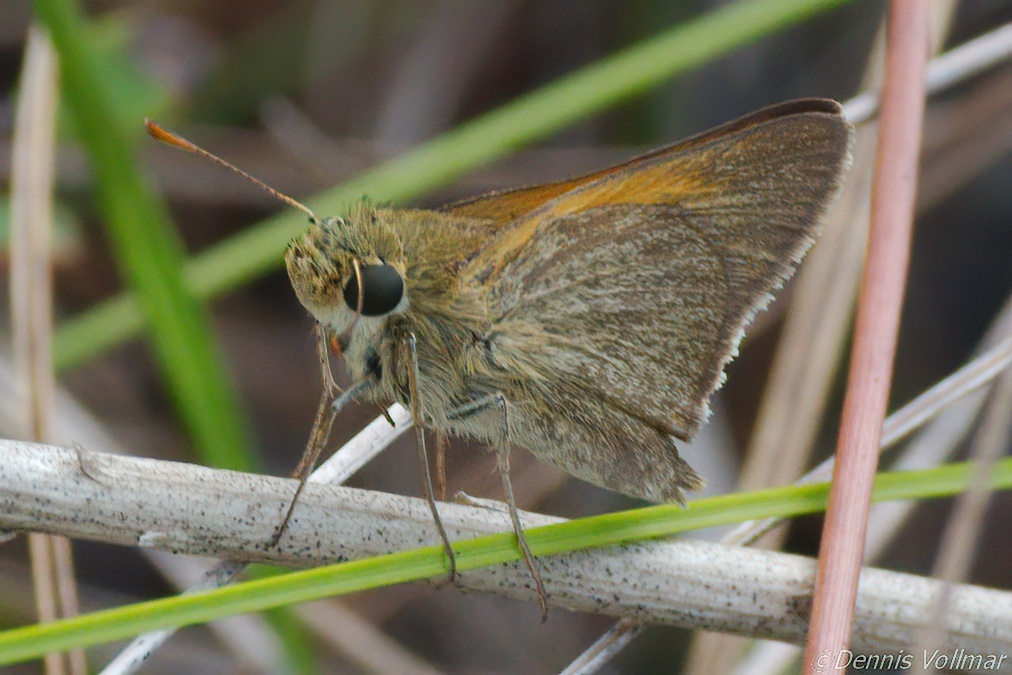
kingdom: Animalia
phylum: Arthropoda
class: Insecta
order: Lepidoptera
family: Hesperiidae
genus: Polites
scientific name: Polites themistocles
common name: Tawny-edged skipper
